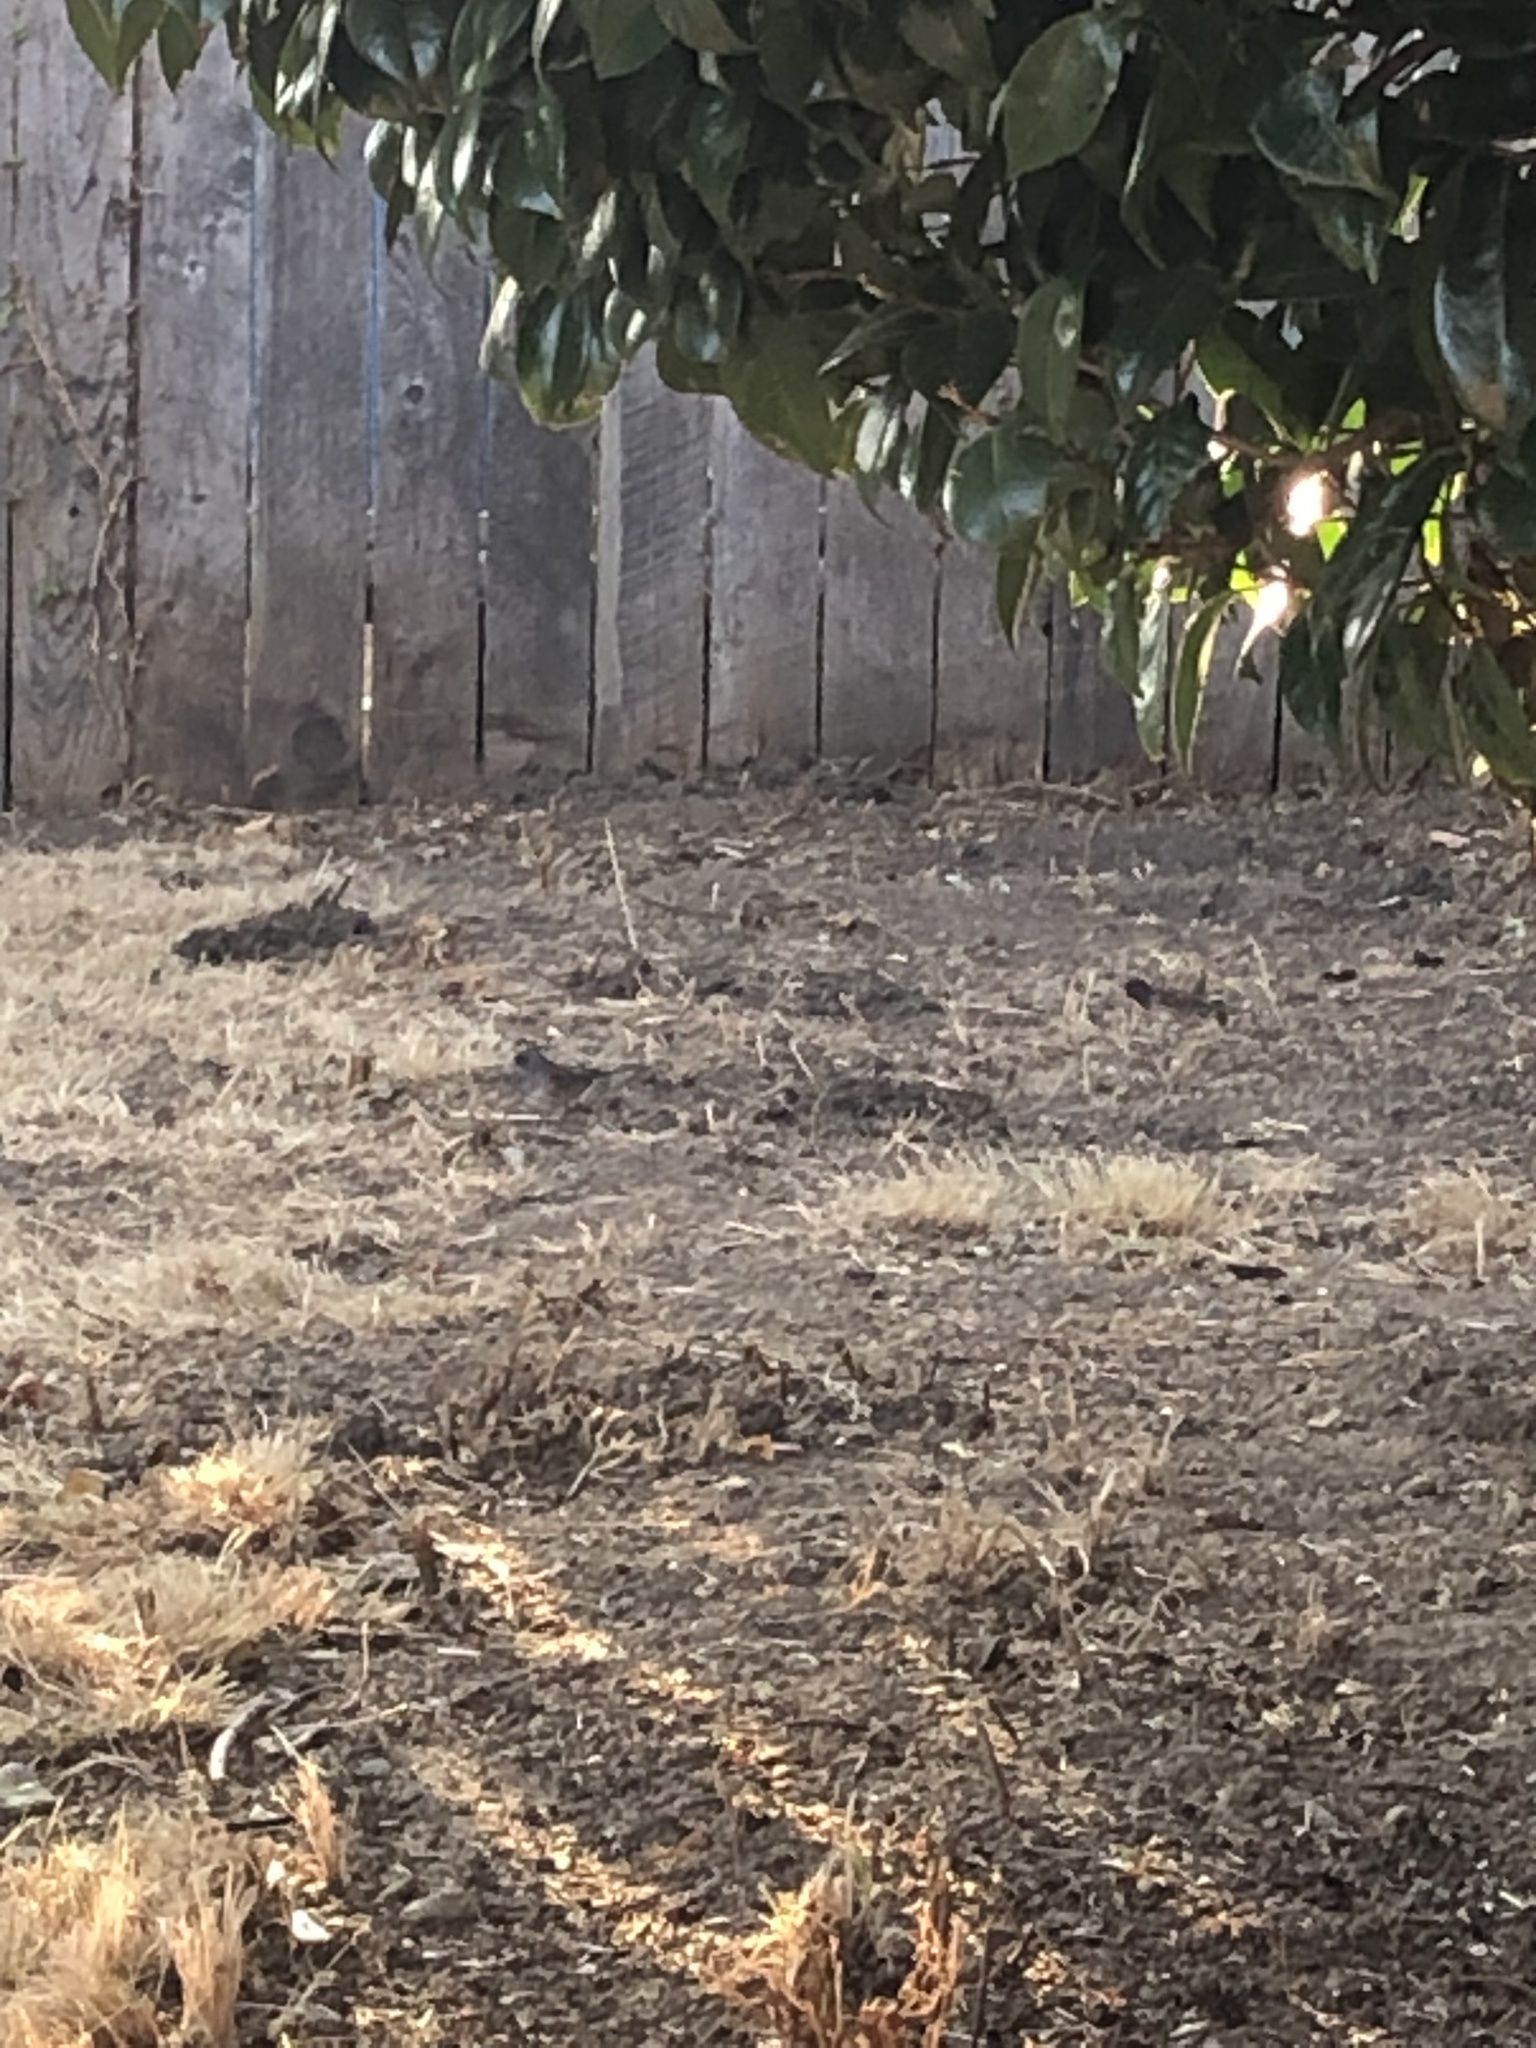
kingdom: Animalia
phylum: Chordata
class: Aves
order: Passeriformes
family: Passerellidae
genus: Junco
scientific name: Junco hyemalis
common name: Dark-eyed junco
